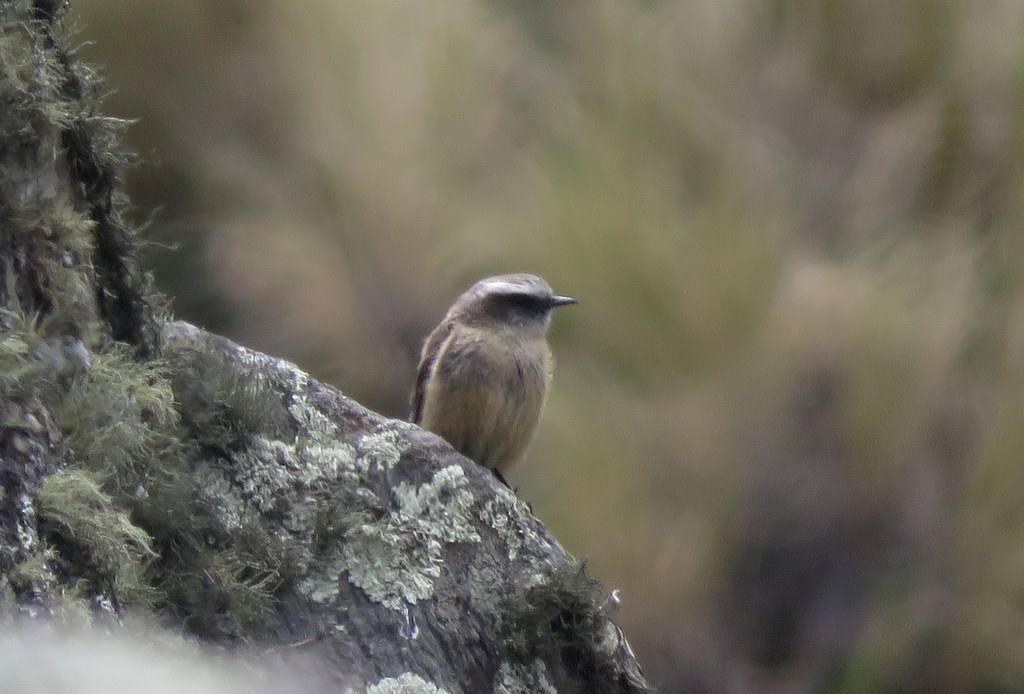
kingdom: Animalia
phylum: Chordata
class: Aves
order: Passeriformes
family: Tyrannidae
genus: Ochthoeca
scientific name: Ochthoeca oenanthoides
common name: D'orbigny's chat-tyrant
